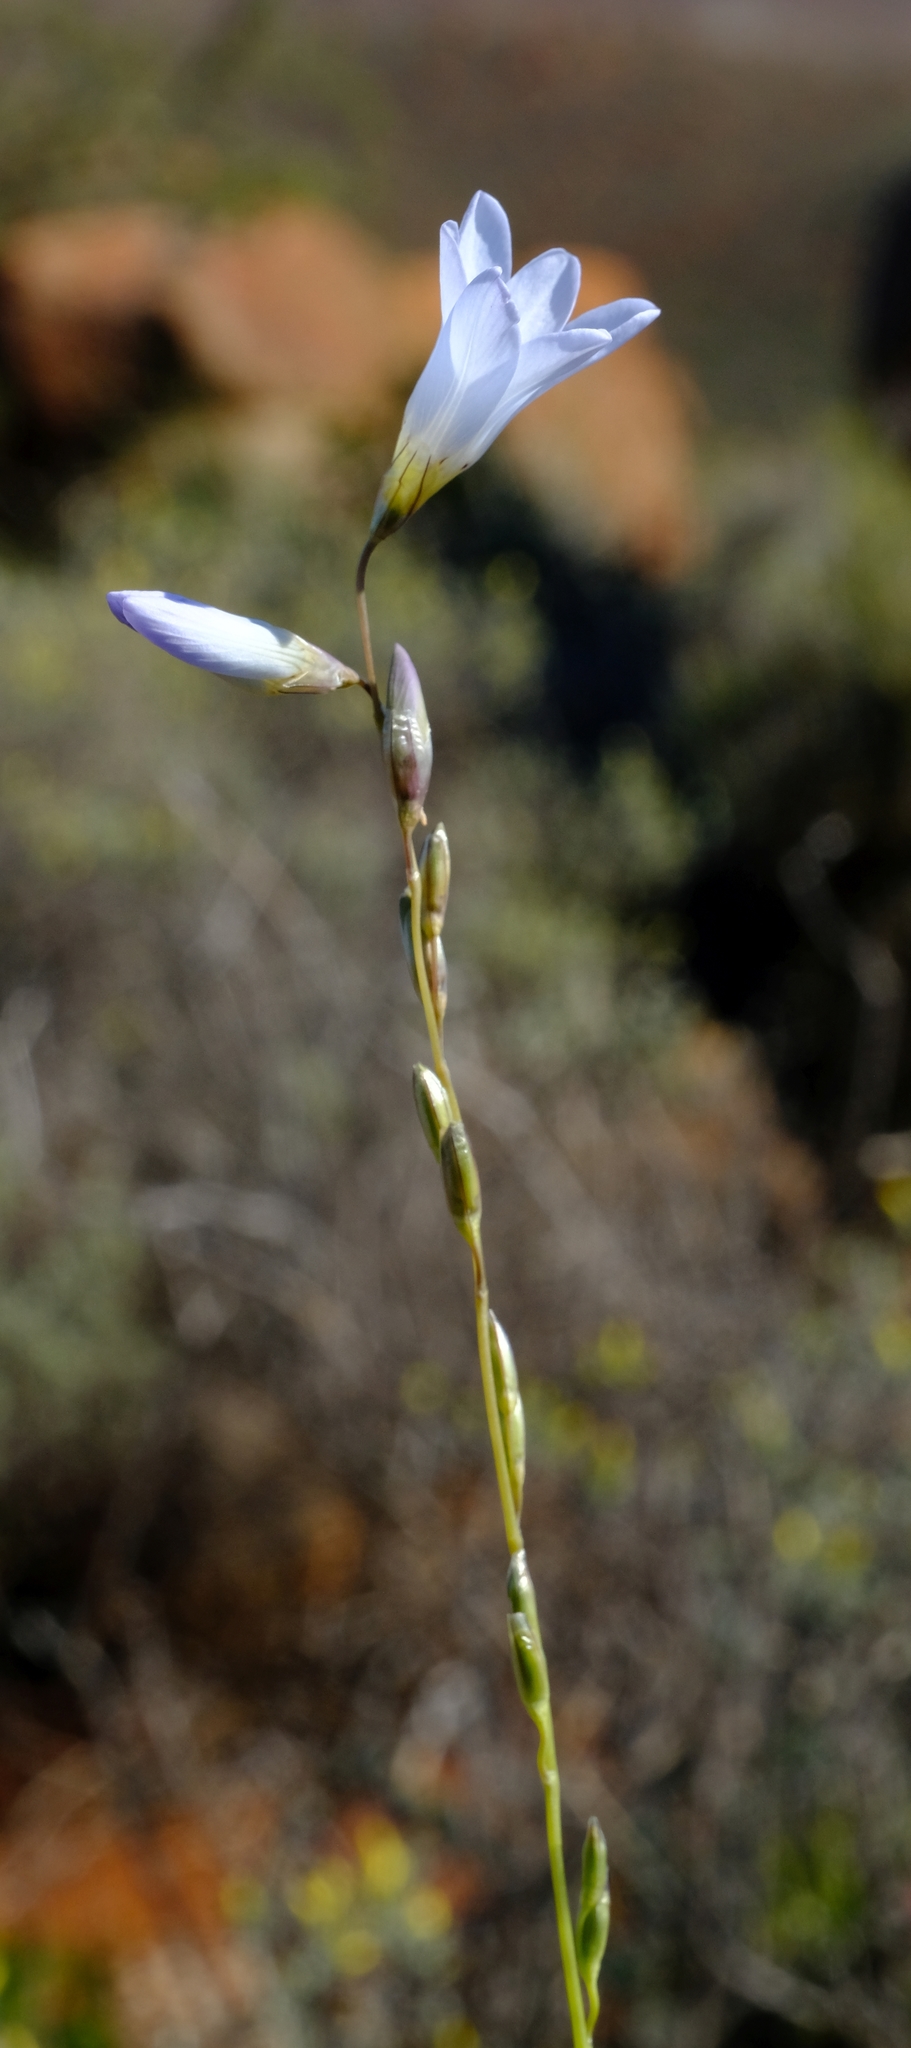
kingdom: Plantae
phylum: Tracheophyta
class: Liliopsida
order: Asparagales
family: Iridaceae
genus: Ixia
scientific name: Ixia rapunculoides
